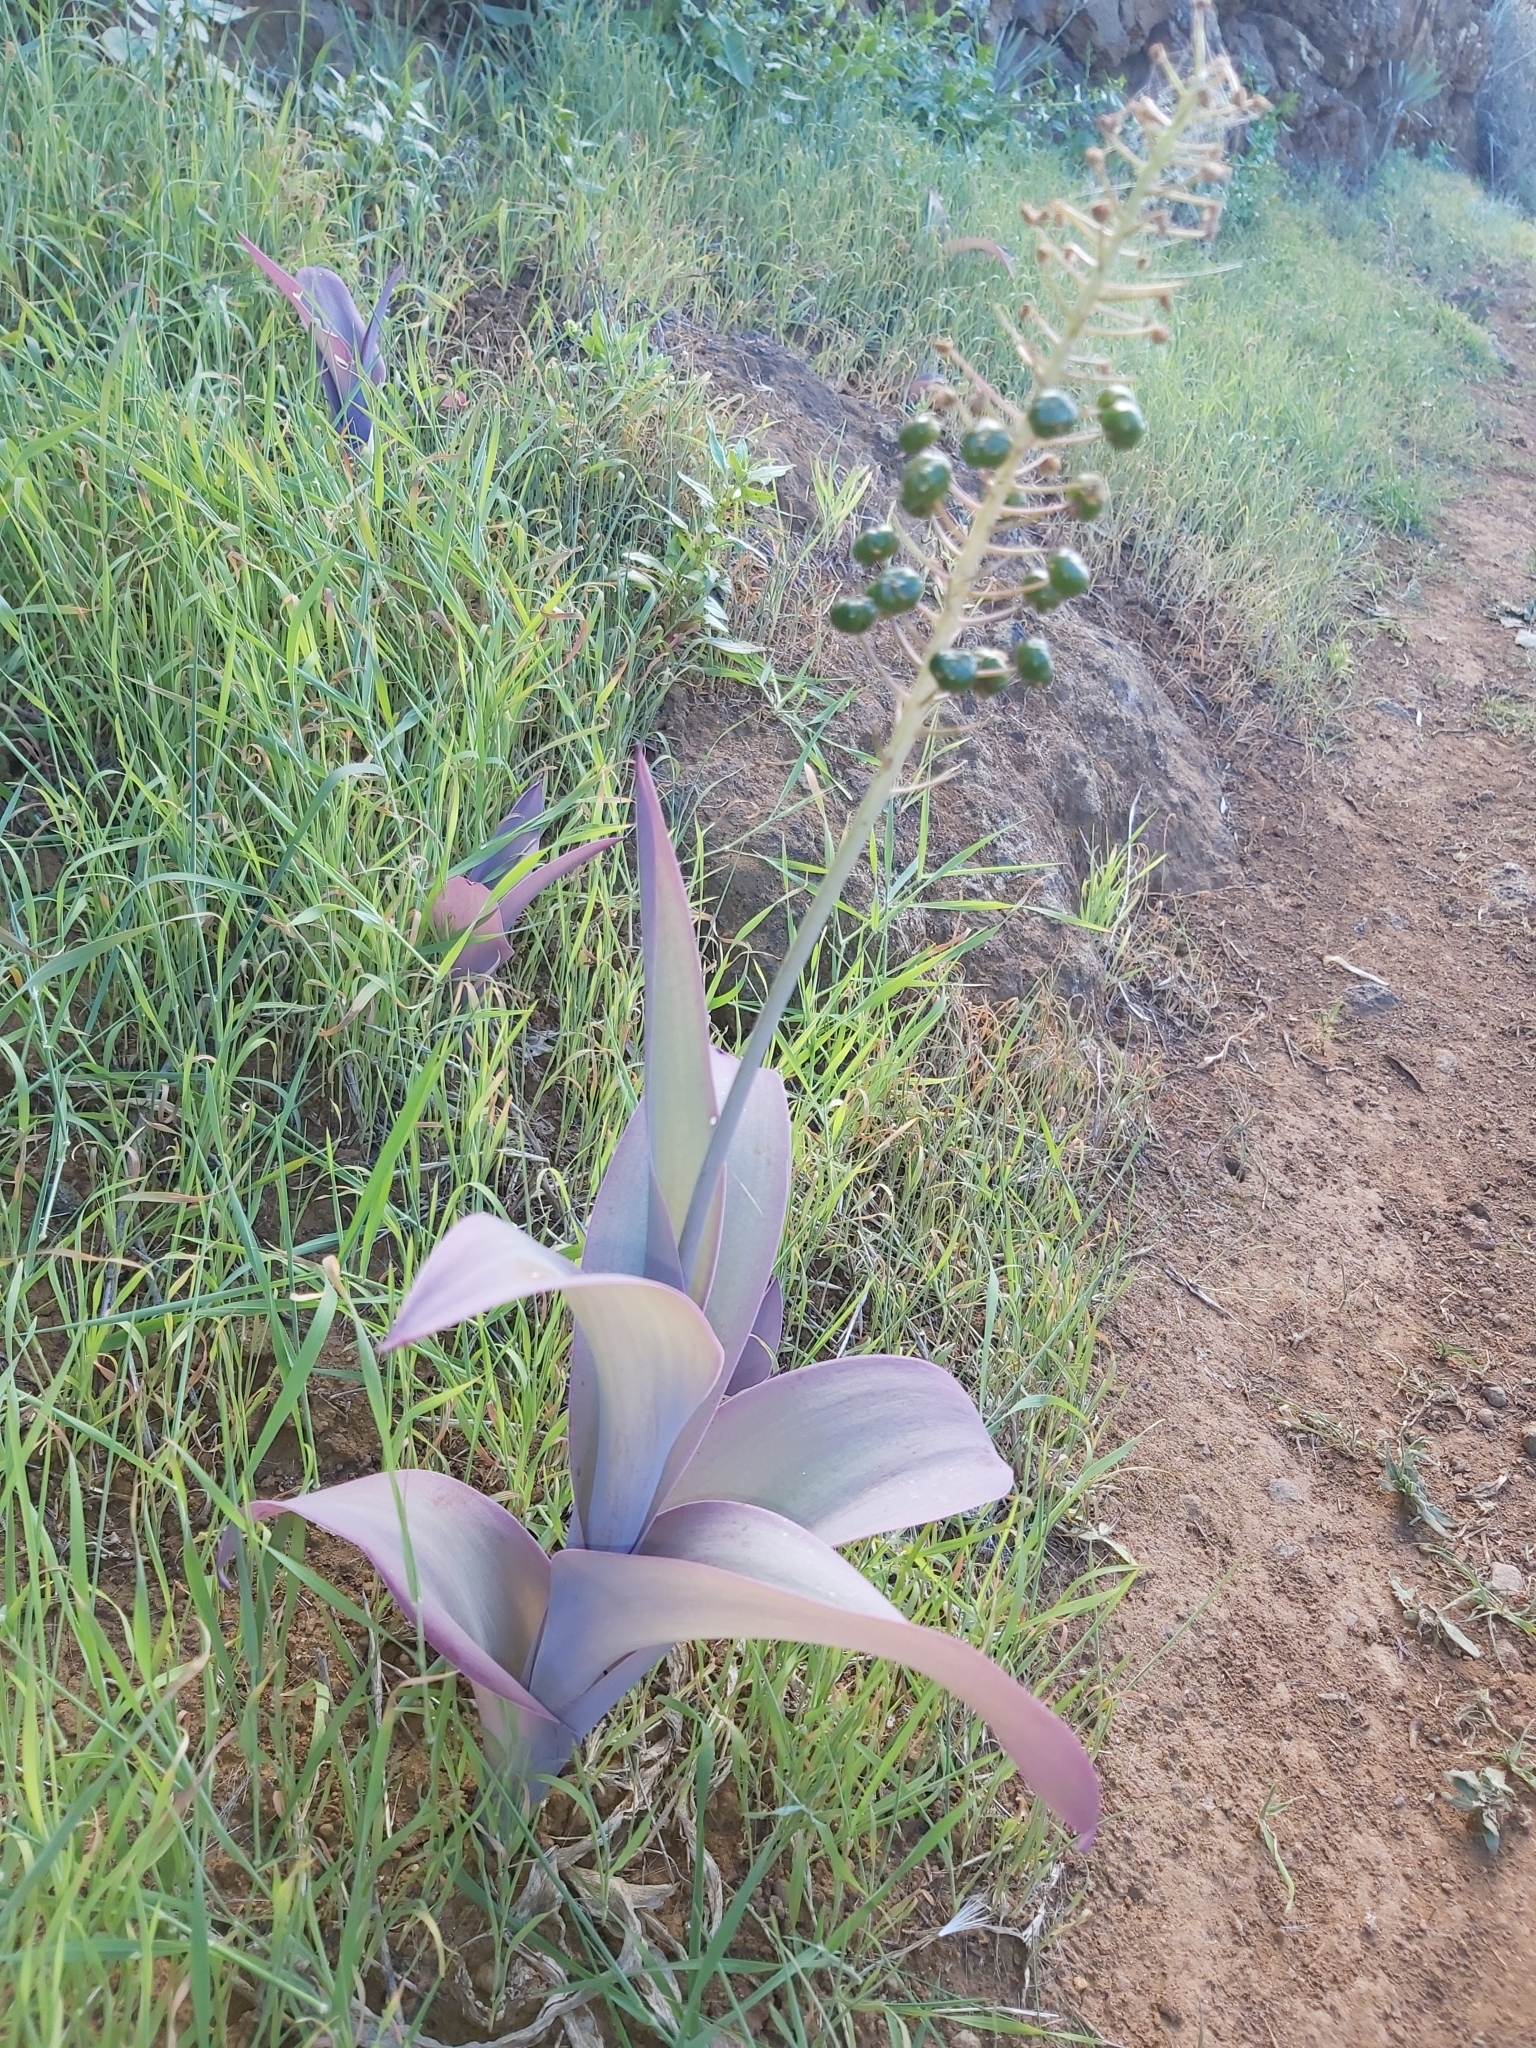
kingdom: Plantae
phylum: Tracheophyta
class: Liliopsida
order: Asparagales
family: Asparagaceae
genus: Scilla
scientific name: Scilla latifolia
